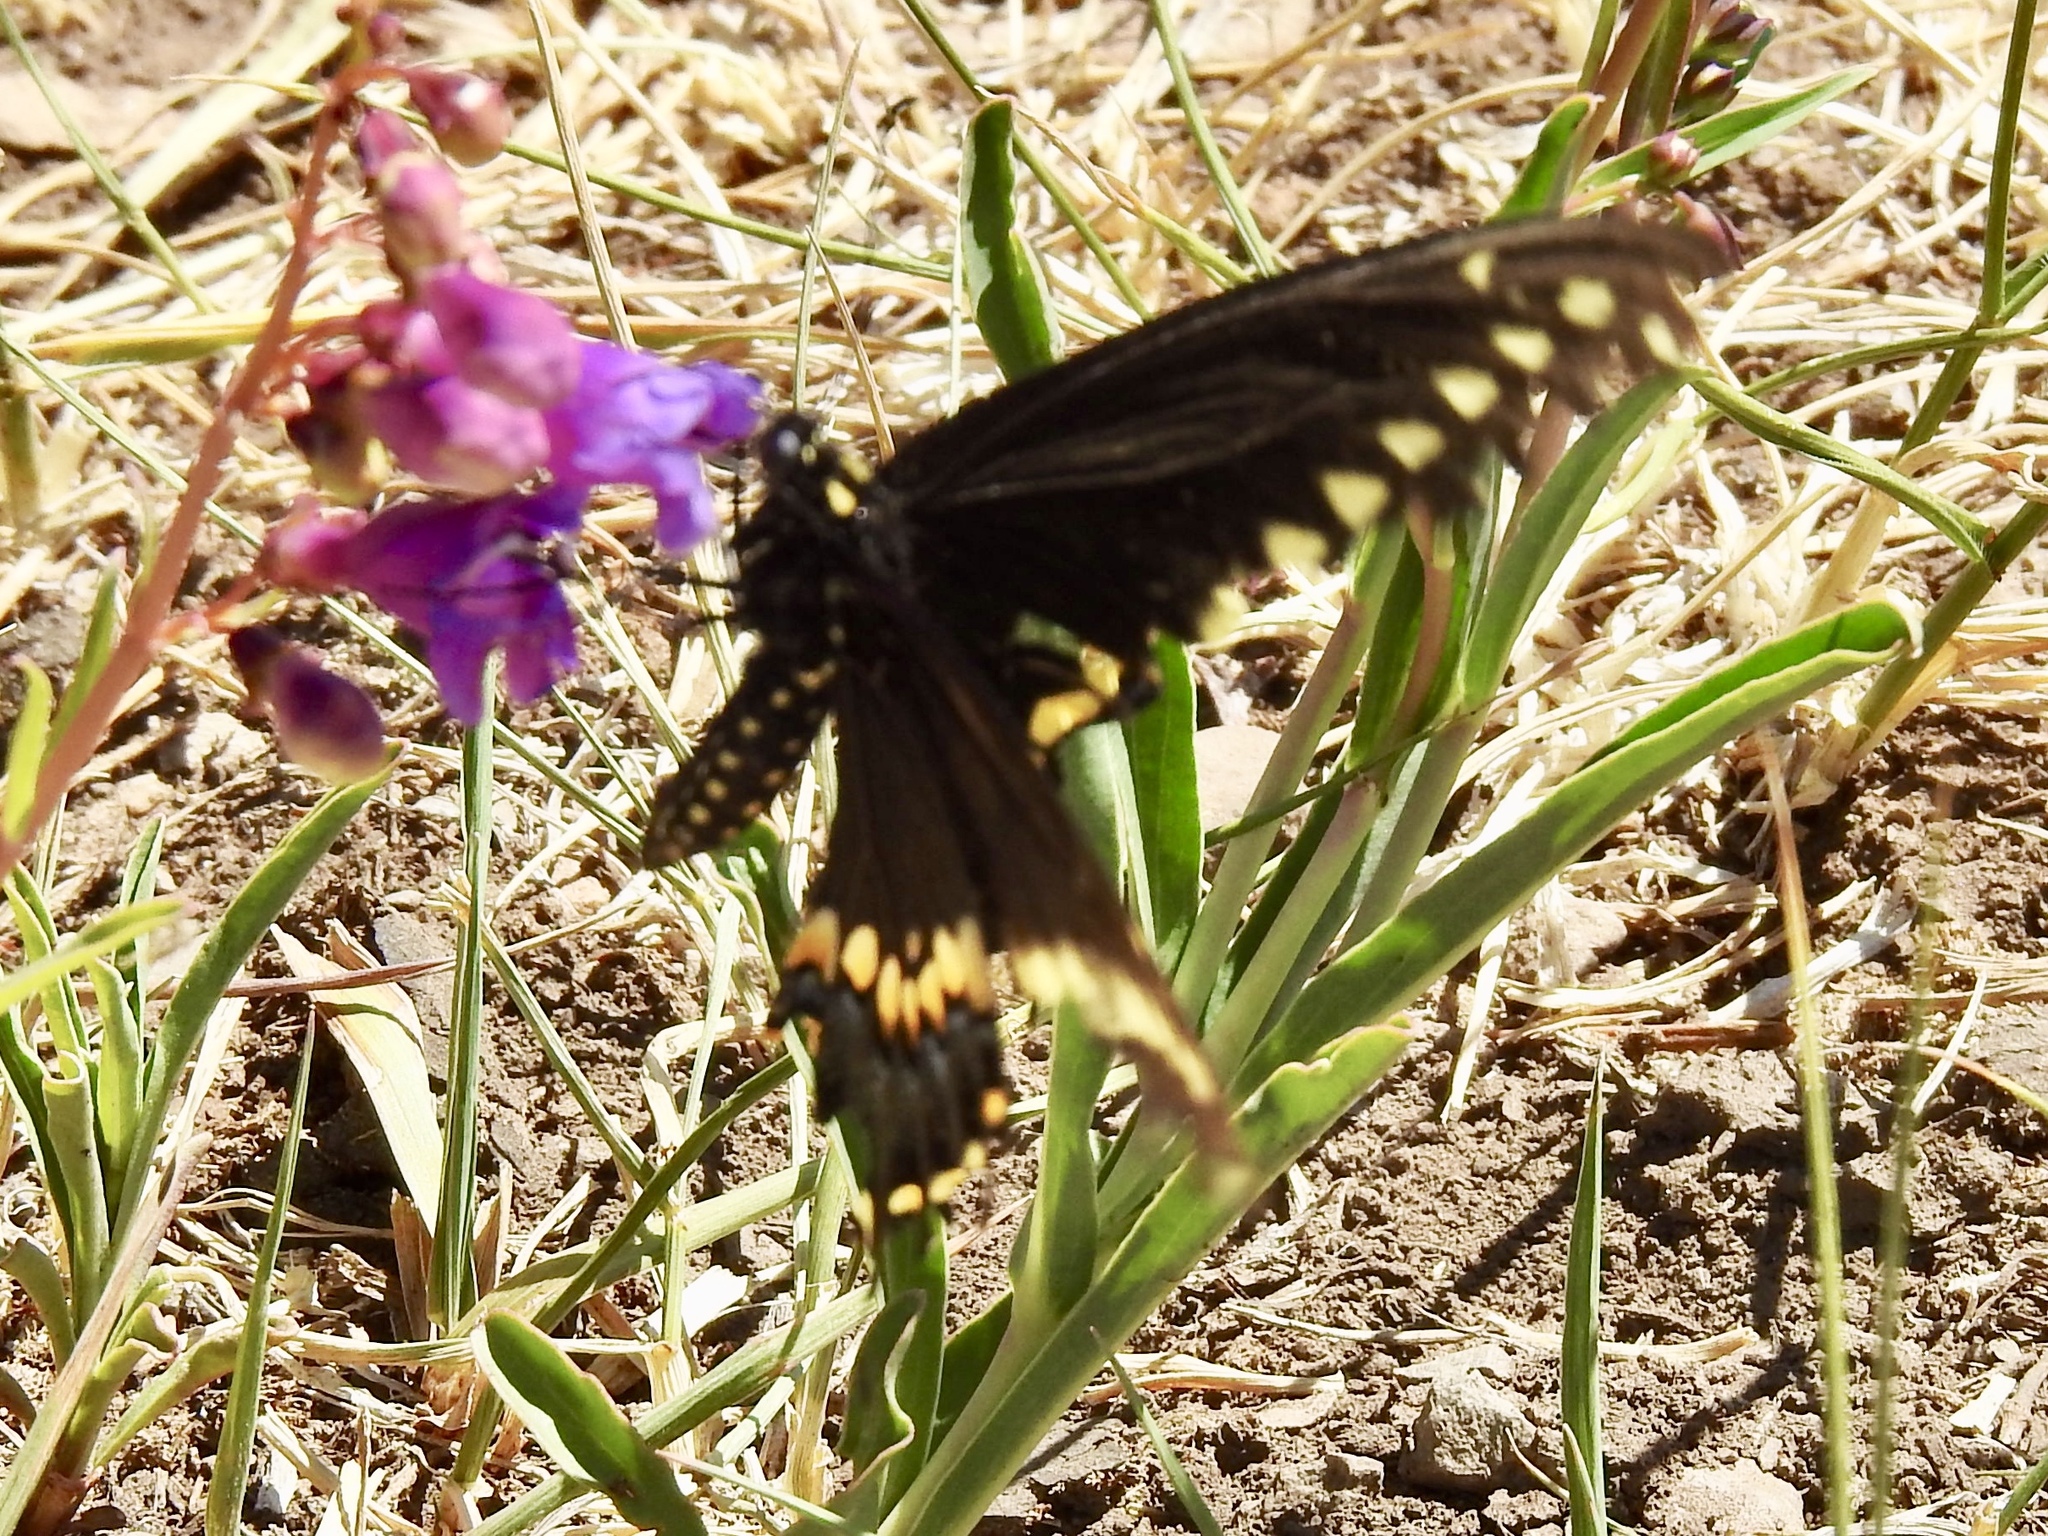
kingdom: Animalia
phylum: Arthropoda
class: Insecta
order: Lepidoptera
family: Papilionidae
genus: Papilio
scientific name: Papilio polyxenes
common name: Black swallowtail
